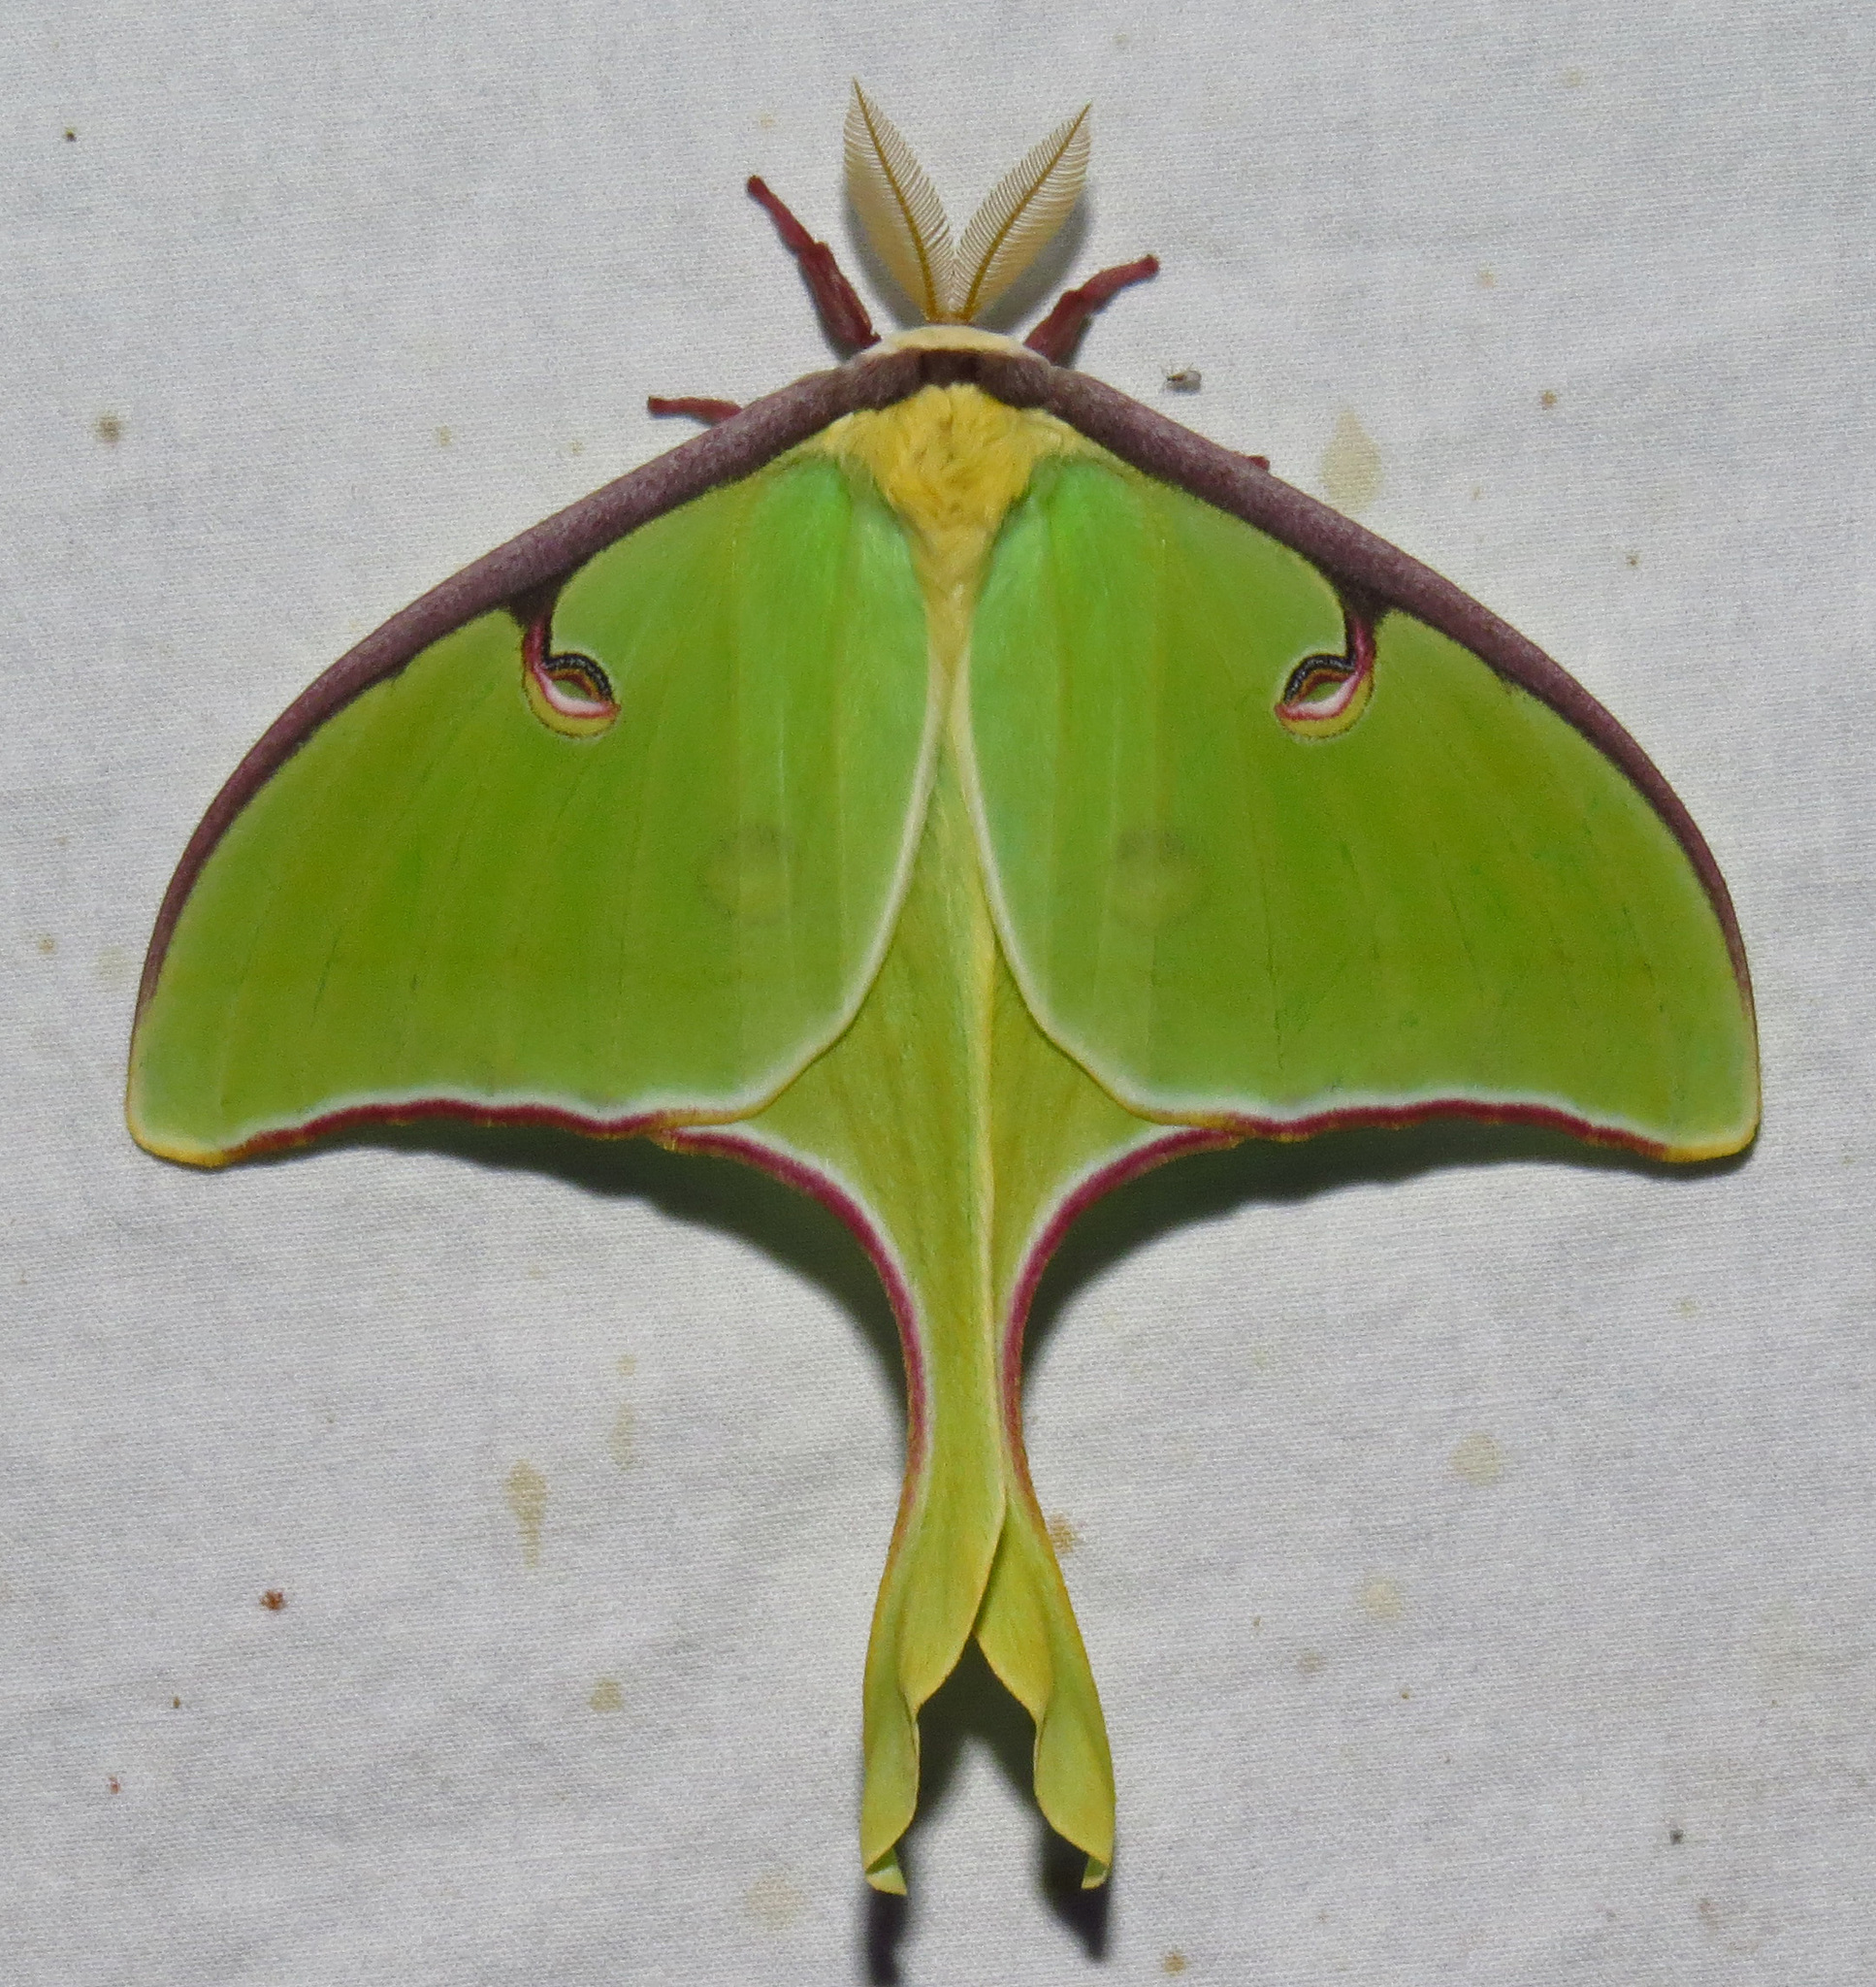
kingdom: Animalia
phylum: Arthropoda
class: Insecta
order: Lepidoptera
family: Saturniidae
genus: Actias
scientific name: Actias luna
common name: Luna moth
